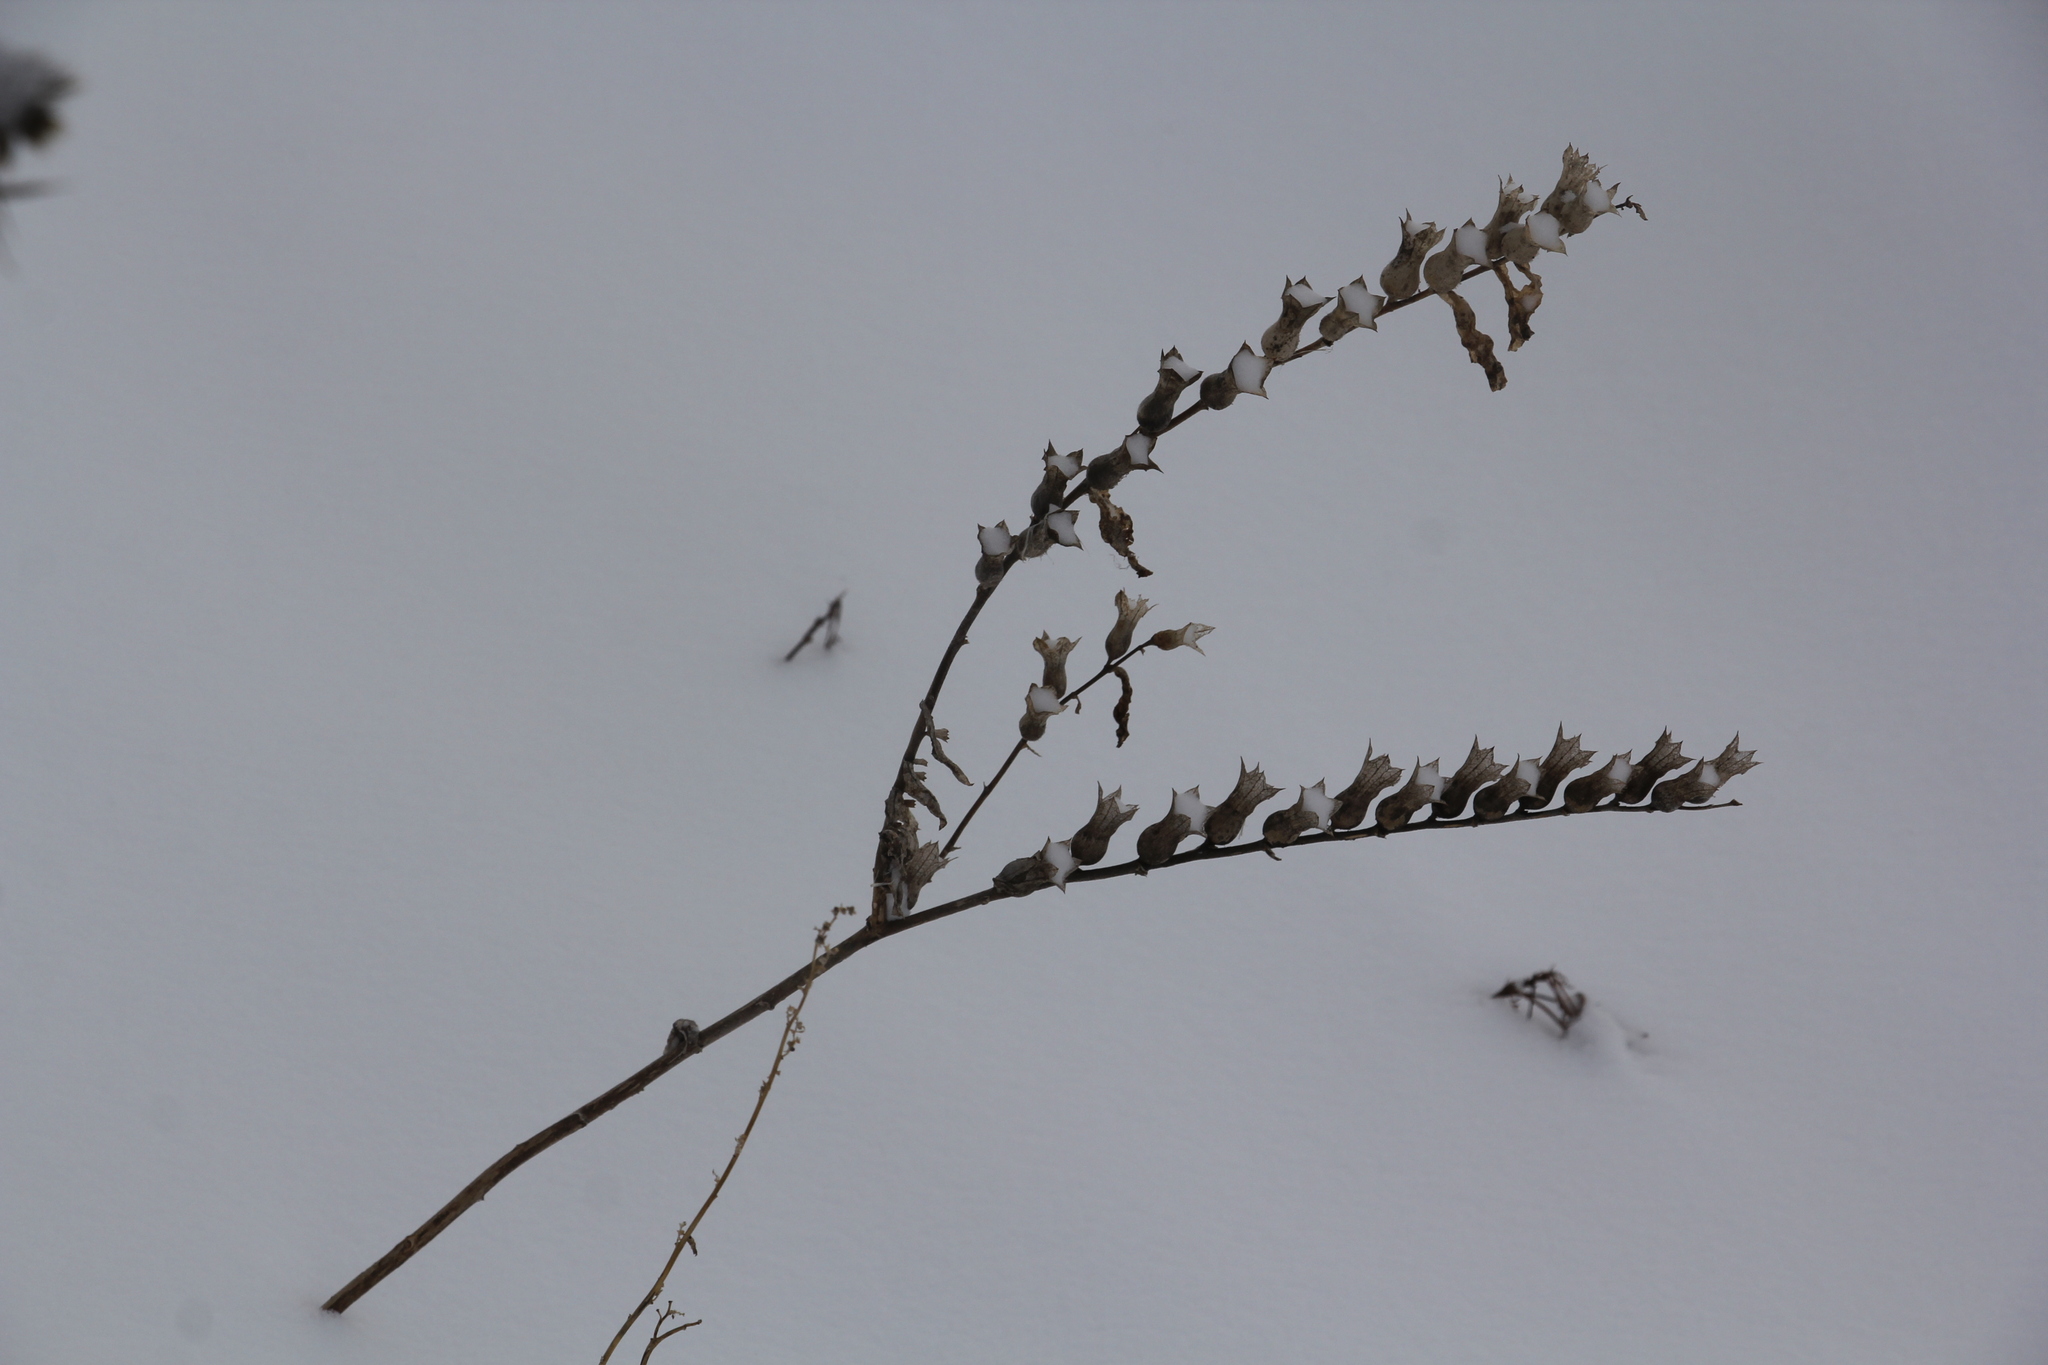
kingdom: Plantae
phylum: Tracheophyta
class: Magnoliopsida
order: Solanales
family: Solanaceae
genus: Hyoscyamus
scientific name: Hyoscyamus niger
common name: Henbane
